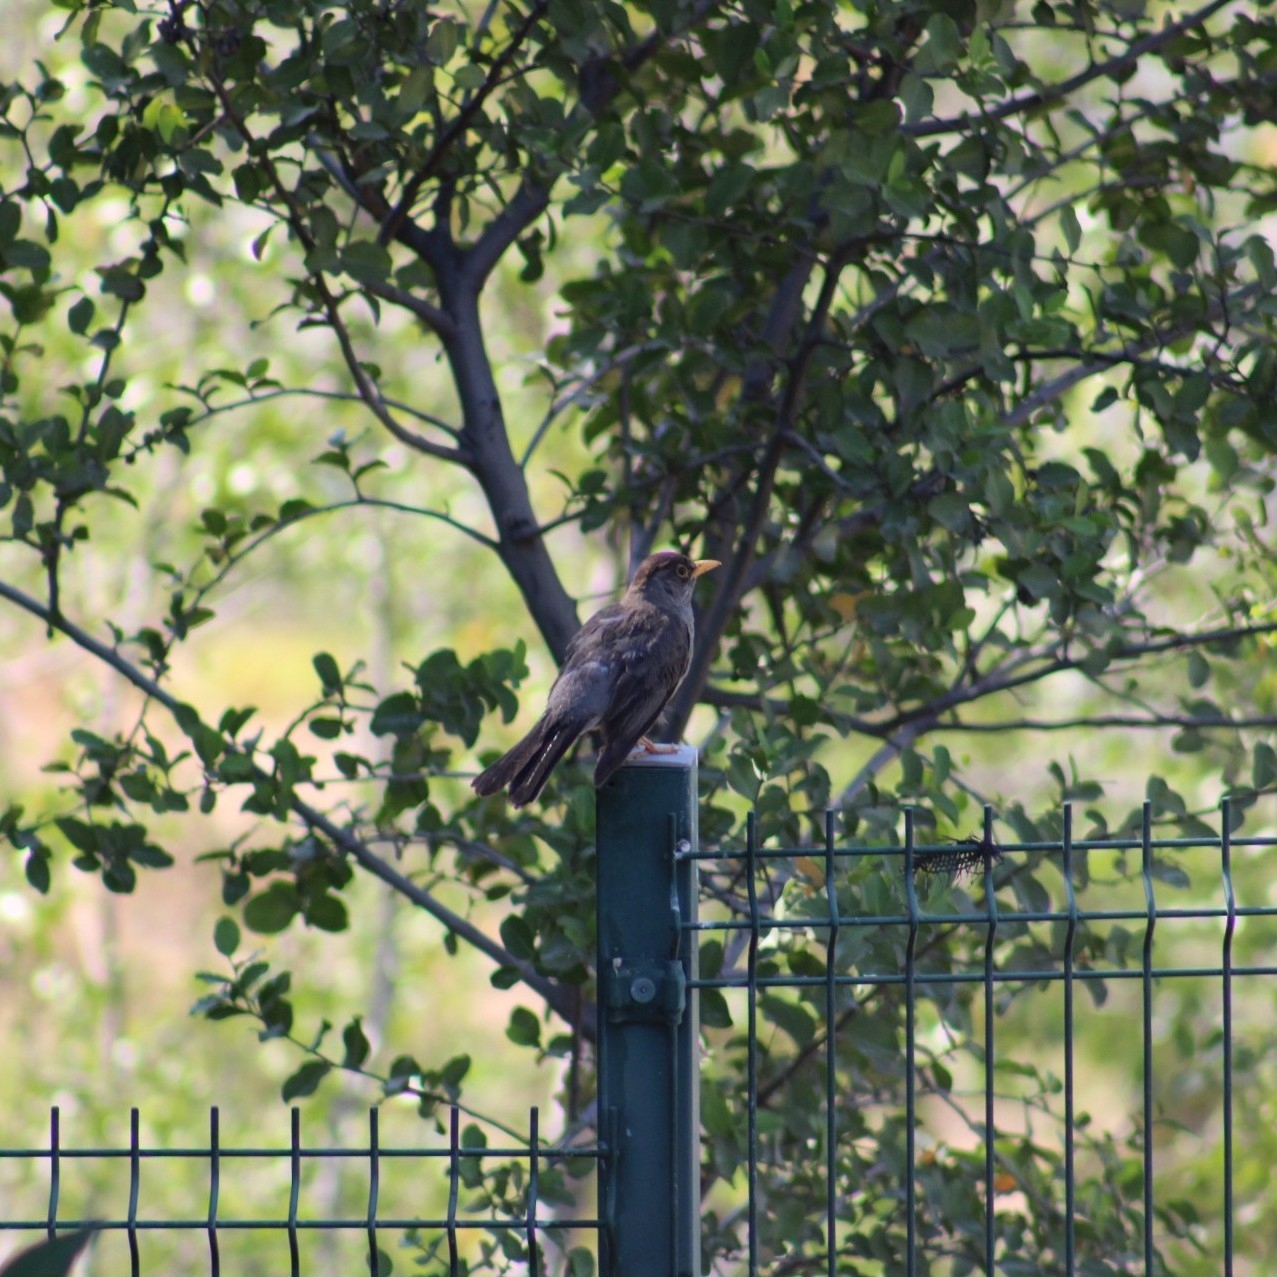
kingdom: Animalia
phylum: Chordata
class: Aves
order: Passeriformes
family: Turdidae
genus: Turdus
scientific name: Turdus falcklandii
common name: Austral thrush
